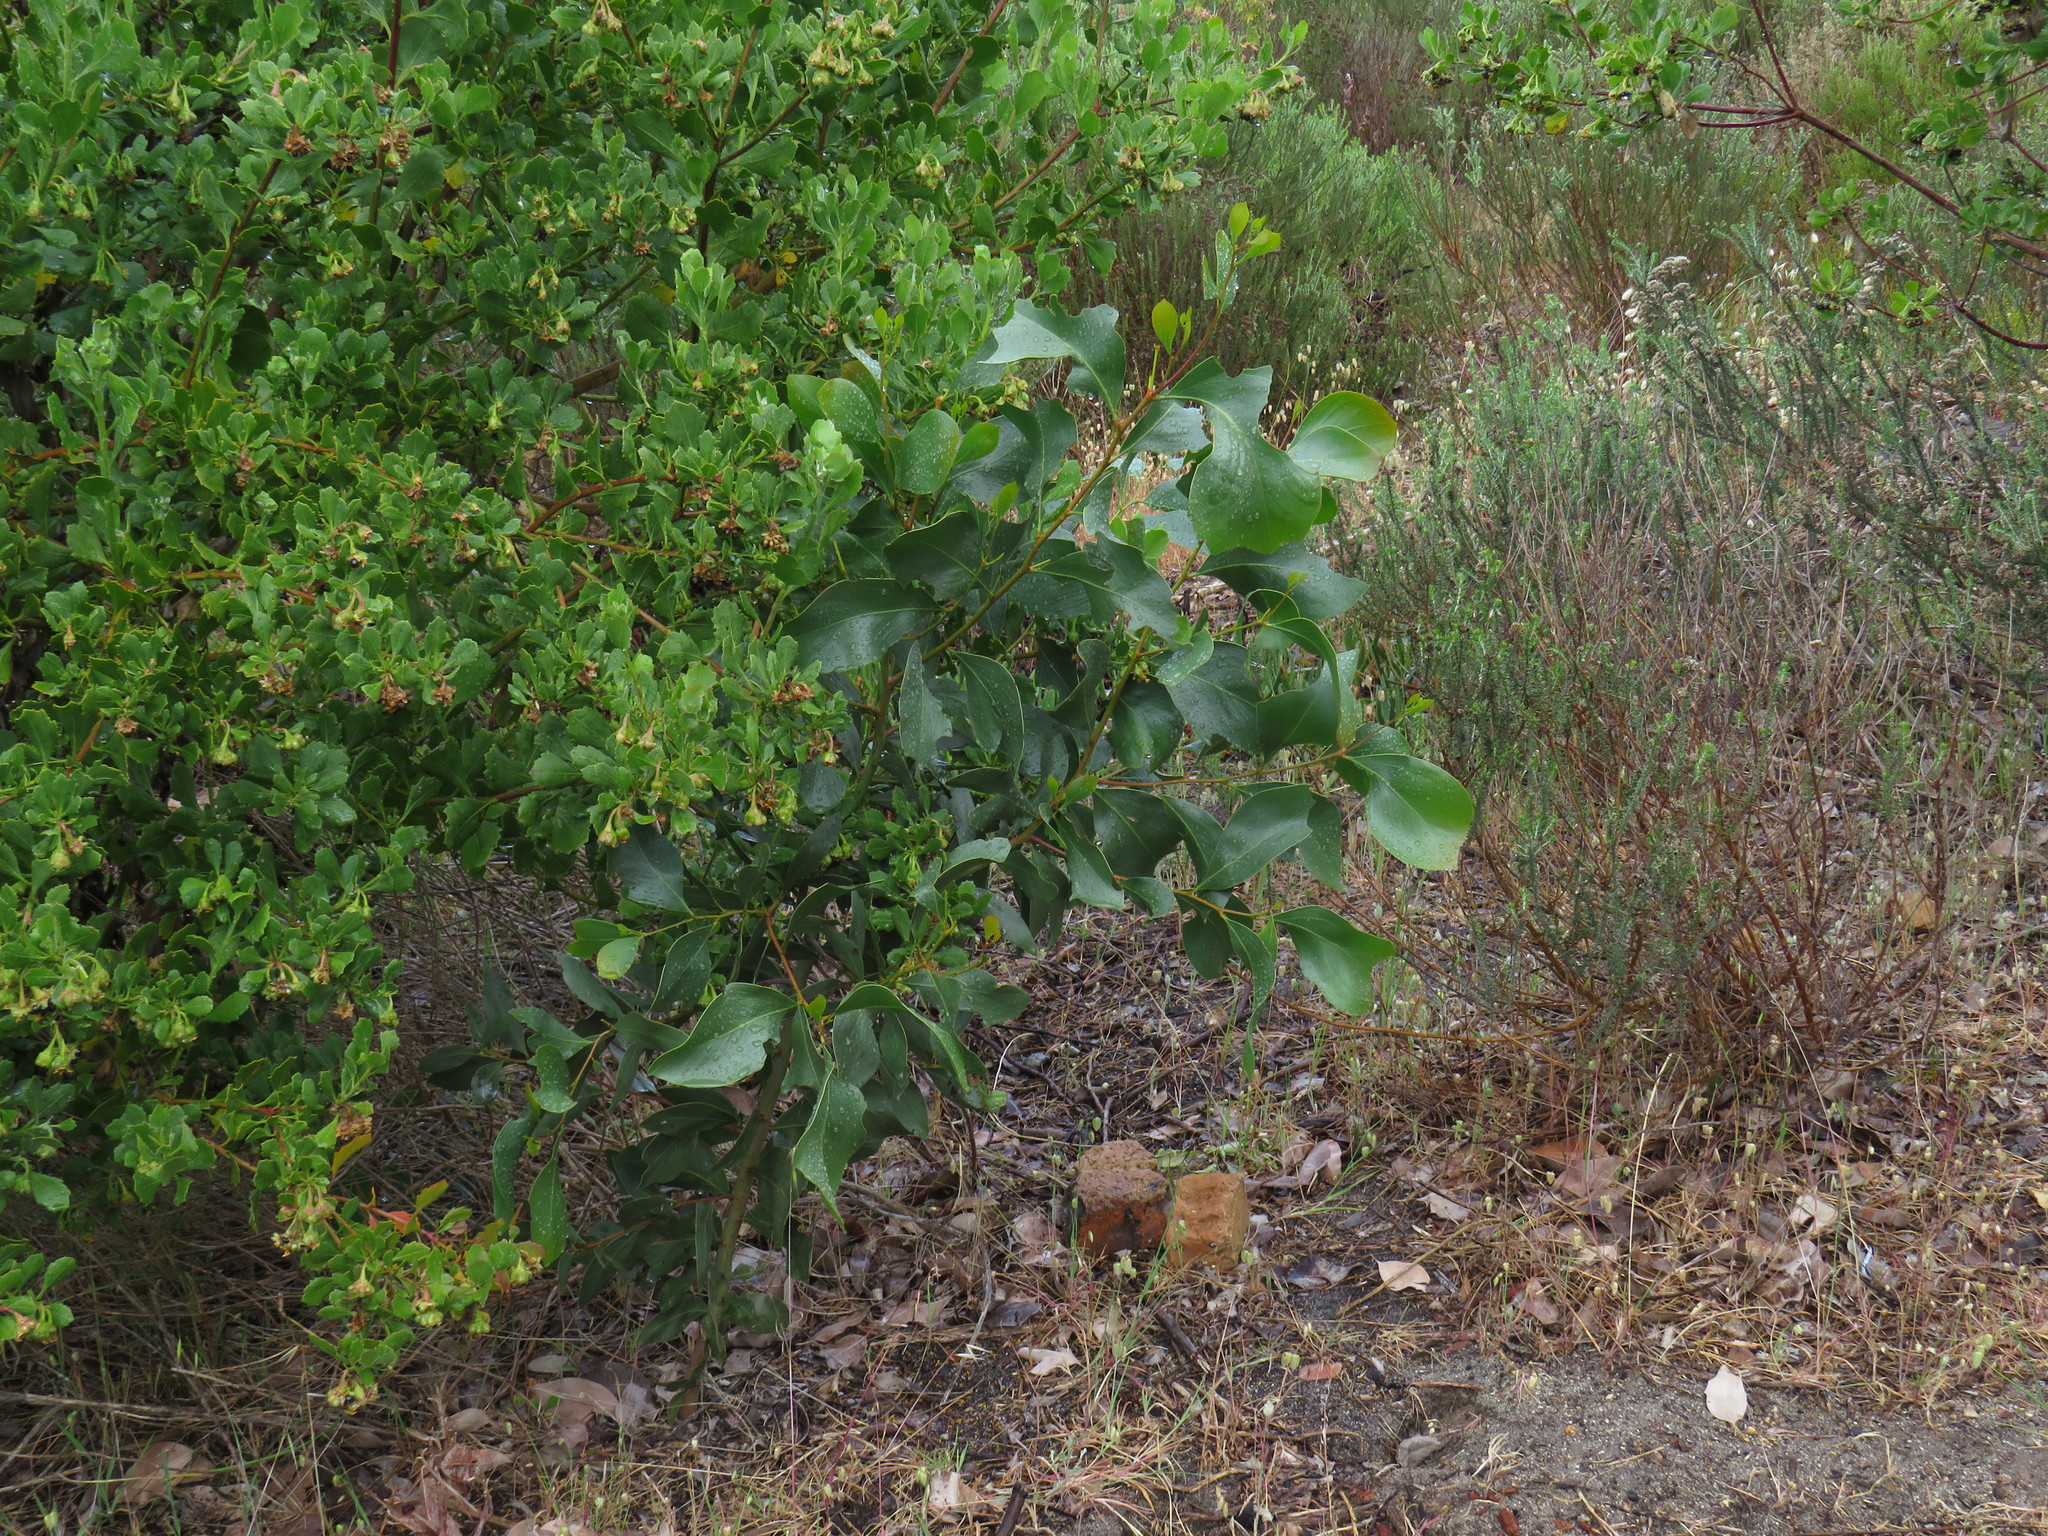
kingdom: Plantae
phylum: Tracheophyta
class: Magnoliopsida
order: Fabales
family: Fabaceae
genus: Acacia
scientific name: Acacia pycnantha
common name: Golden wattle
